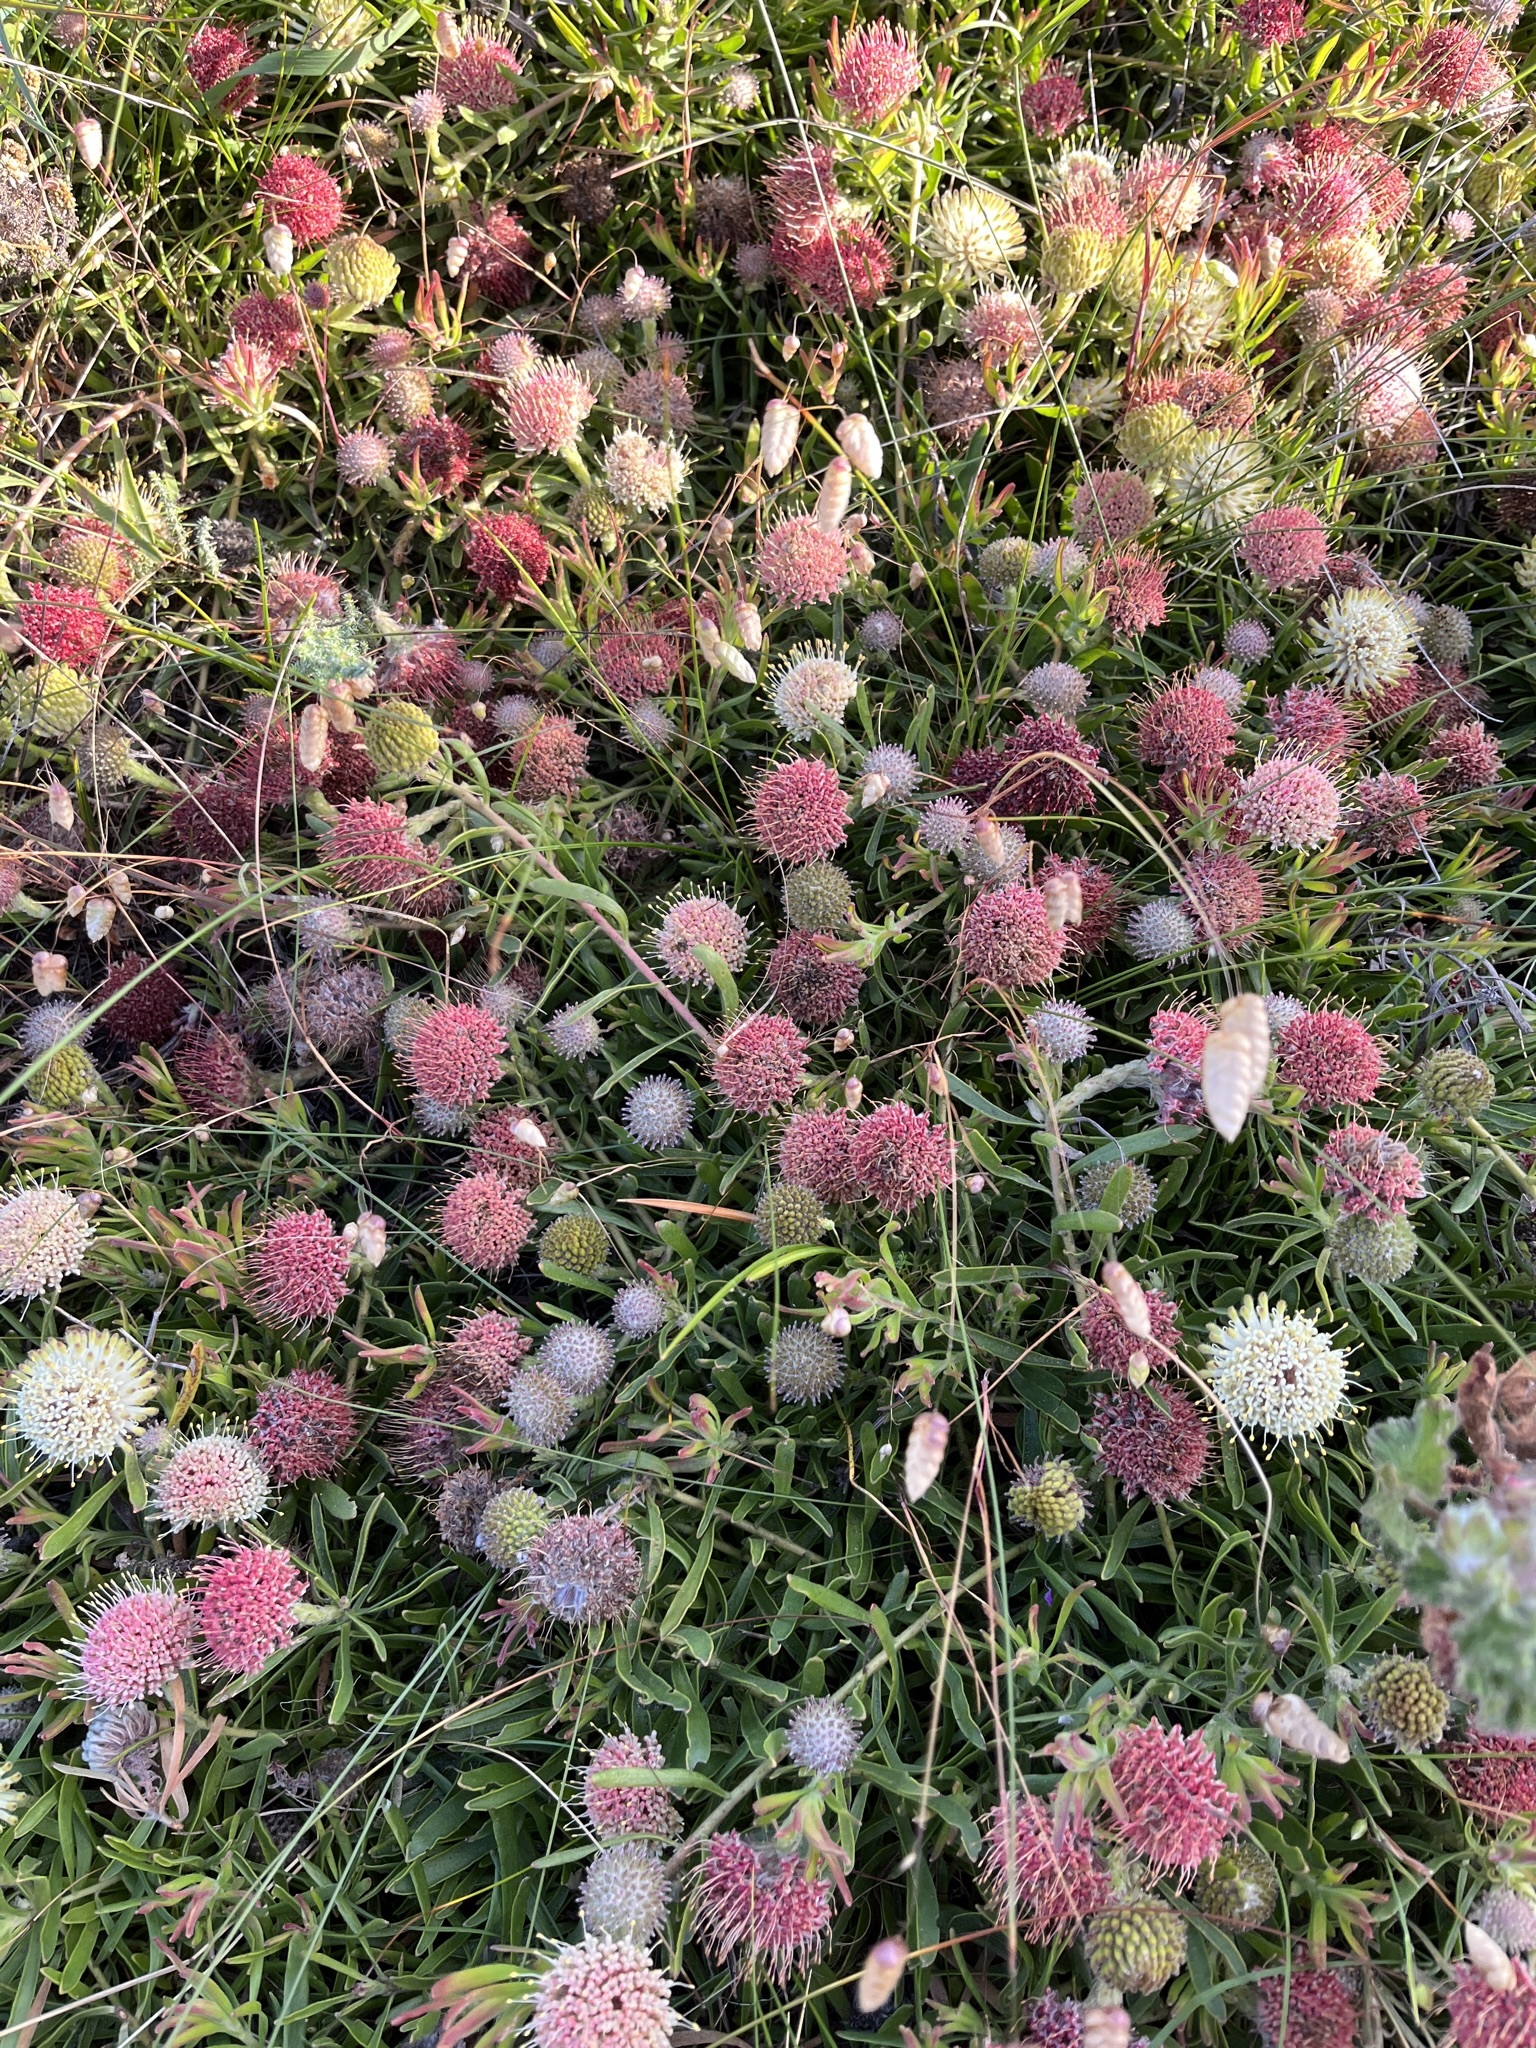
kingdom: Plantae
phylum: Tracheophyta
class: Magnoliopsida
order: Proteales
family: Proteaceae
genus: Leucospermum
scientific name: Leucospermum pedunculatum
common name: White-trailing pincushion
